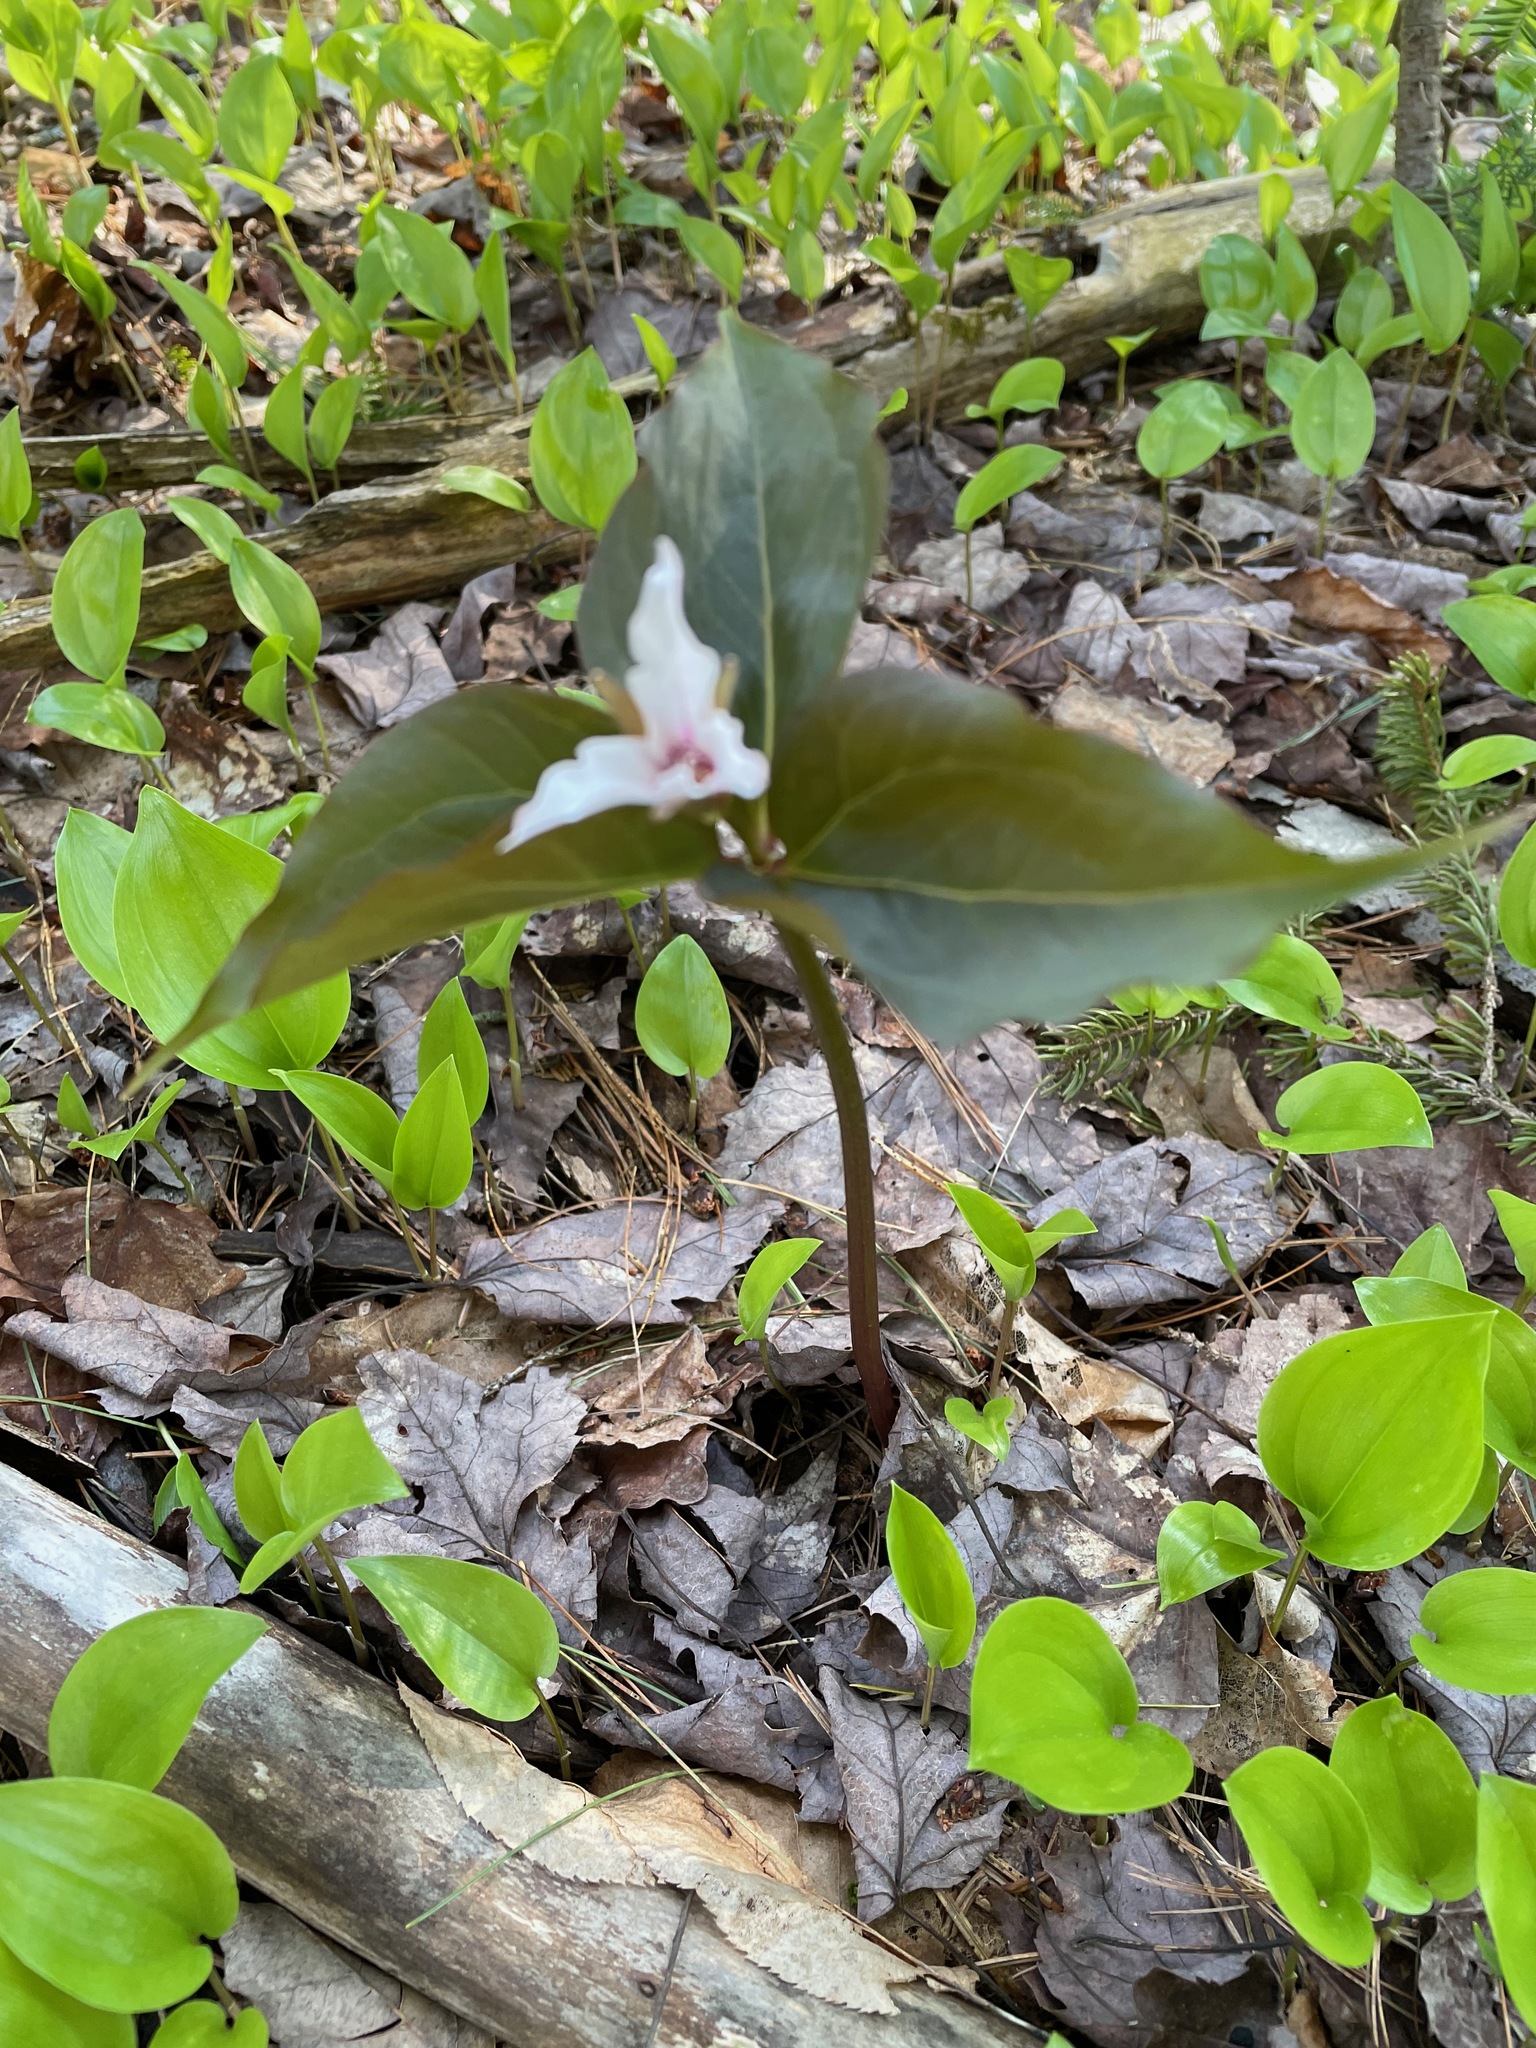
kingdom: Plantae
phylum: Tracheophyta
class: Liliopsida
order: Liliales
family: Melanthiaceae
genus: Trillium
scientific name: Trillium undulatum
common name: Paint trillium
